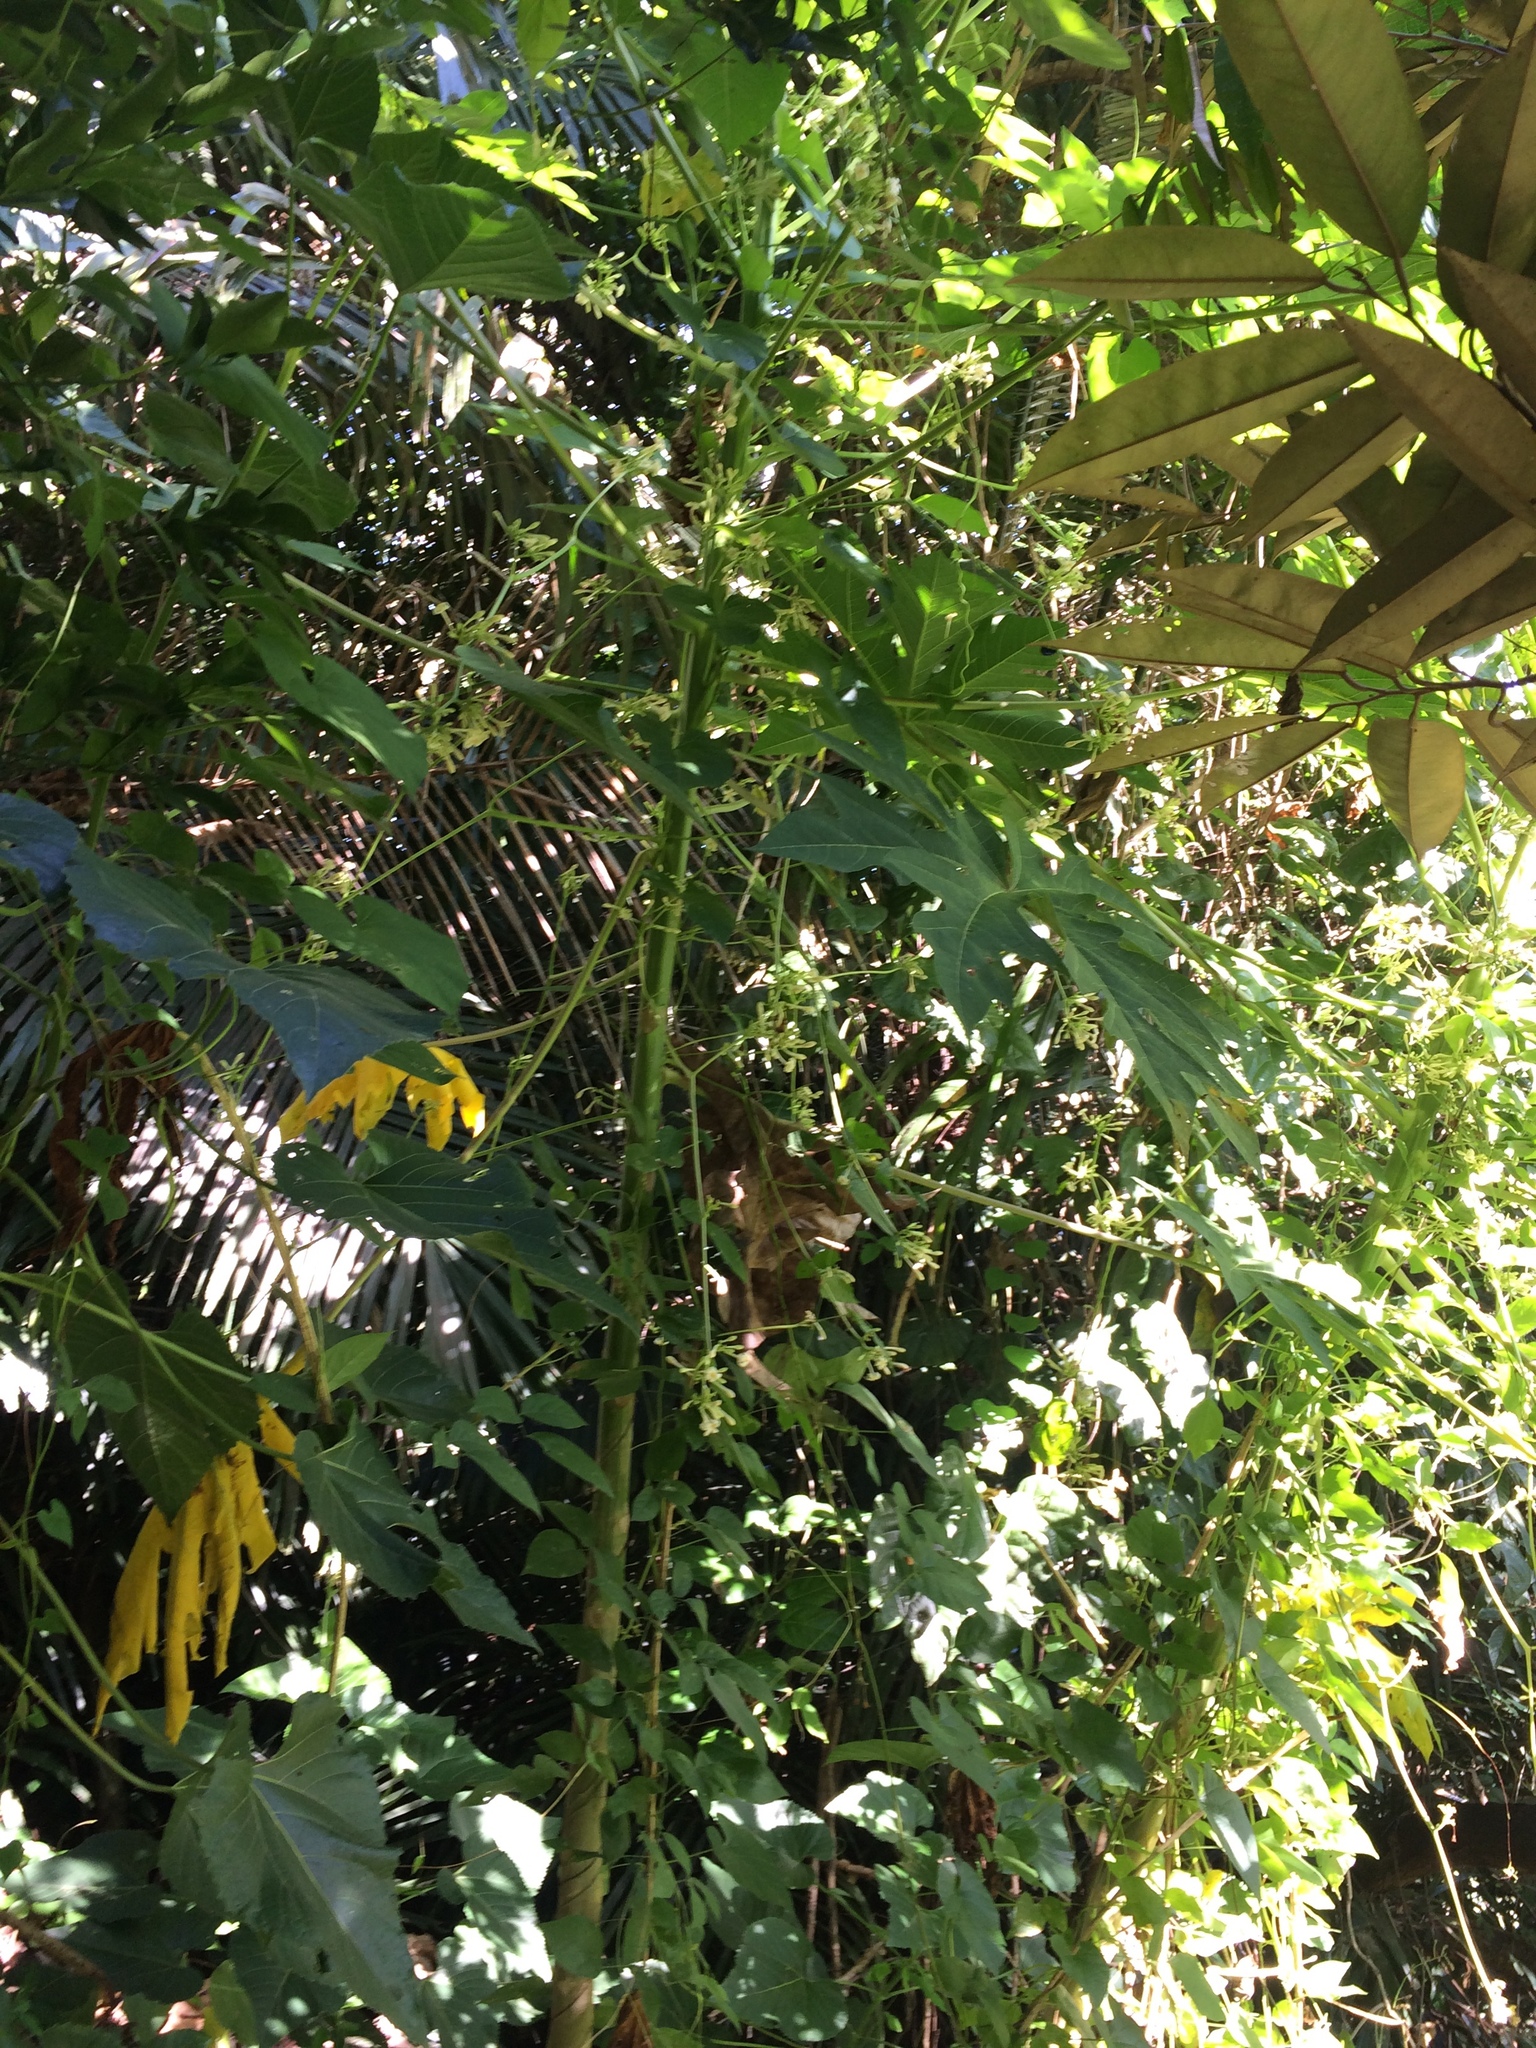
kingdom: Plantae
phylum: Tracheophyta
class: Magnoliopsida
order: Brassicales
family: Caricaceae
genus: Carica
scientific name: Carica papaya
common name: Papaya
